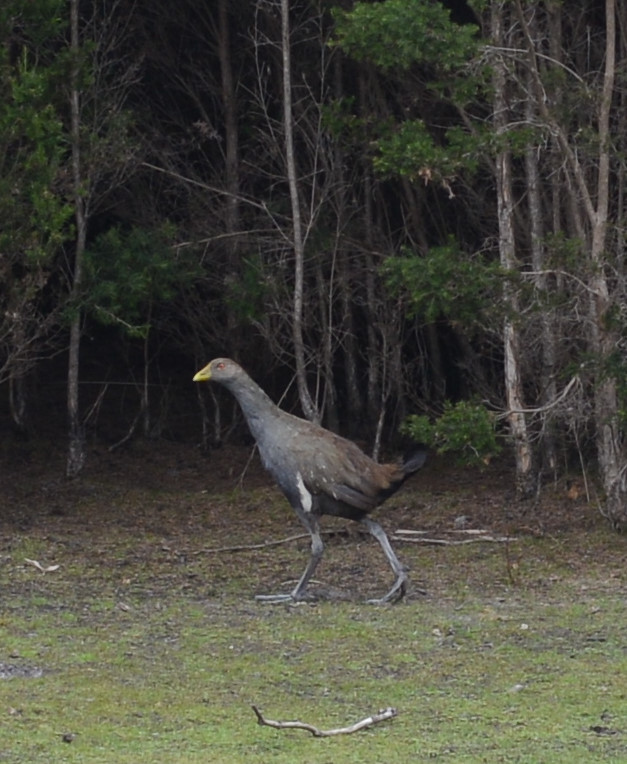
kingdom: Animalia
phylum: Chordata
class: Aves
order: Gruiformes
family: Rallidae
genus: Gallinula
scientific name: Gallinula mortierii
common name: Tasmanian nativehen
